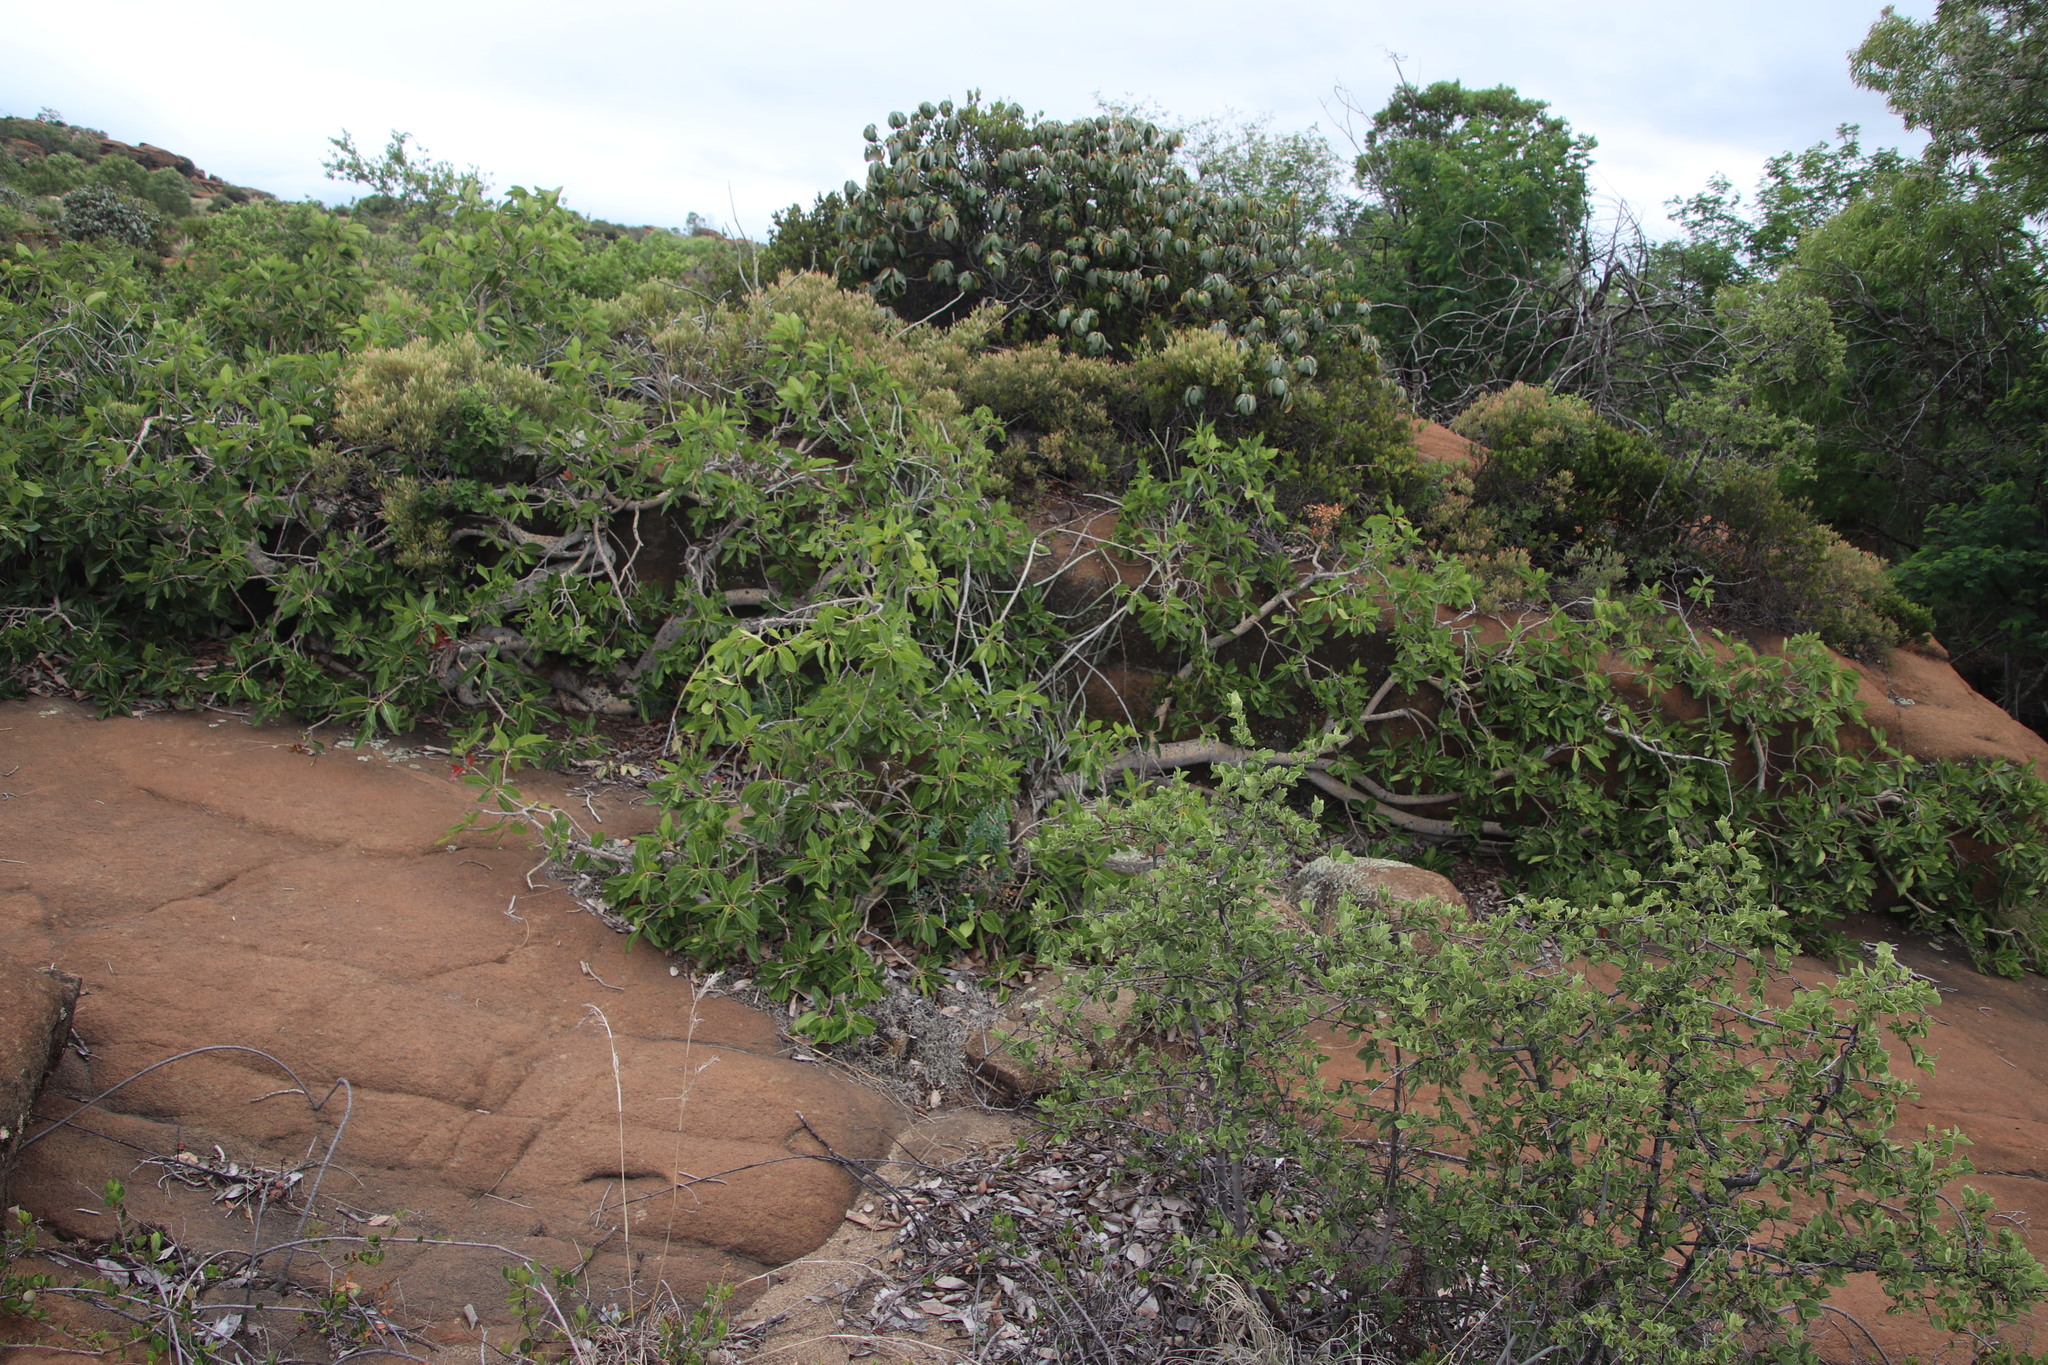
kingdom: Plantae
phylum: Tracheophyta
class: Magnoliopsida
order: Rosales
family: Moraceae
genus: Ficus
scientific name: Ficus ingens
